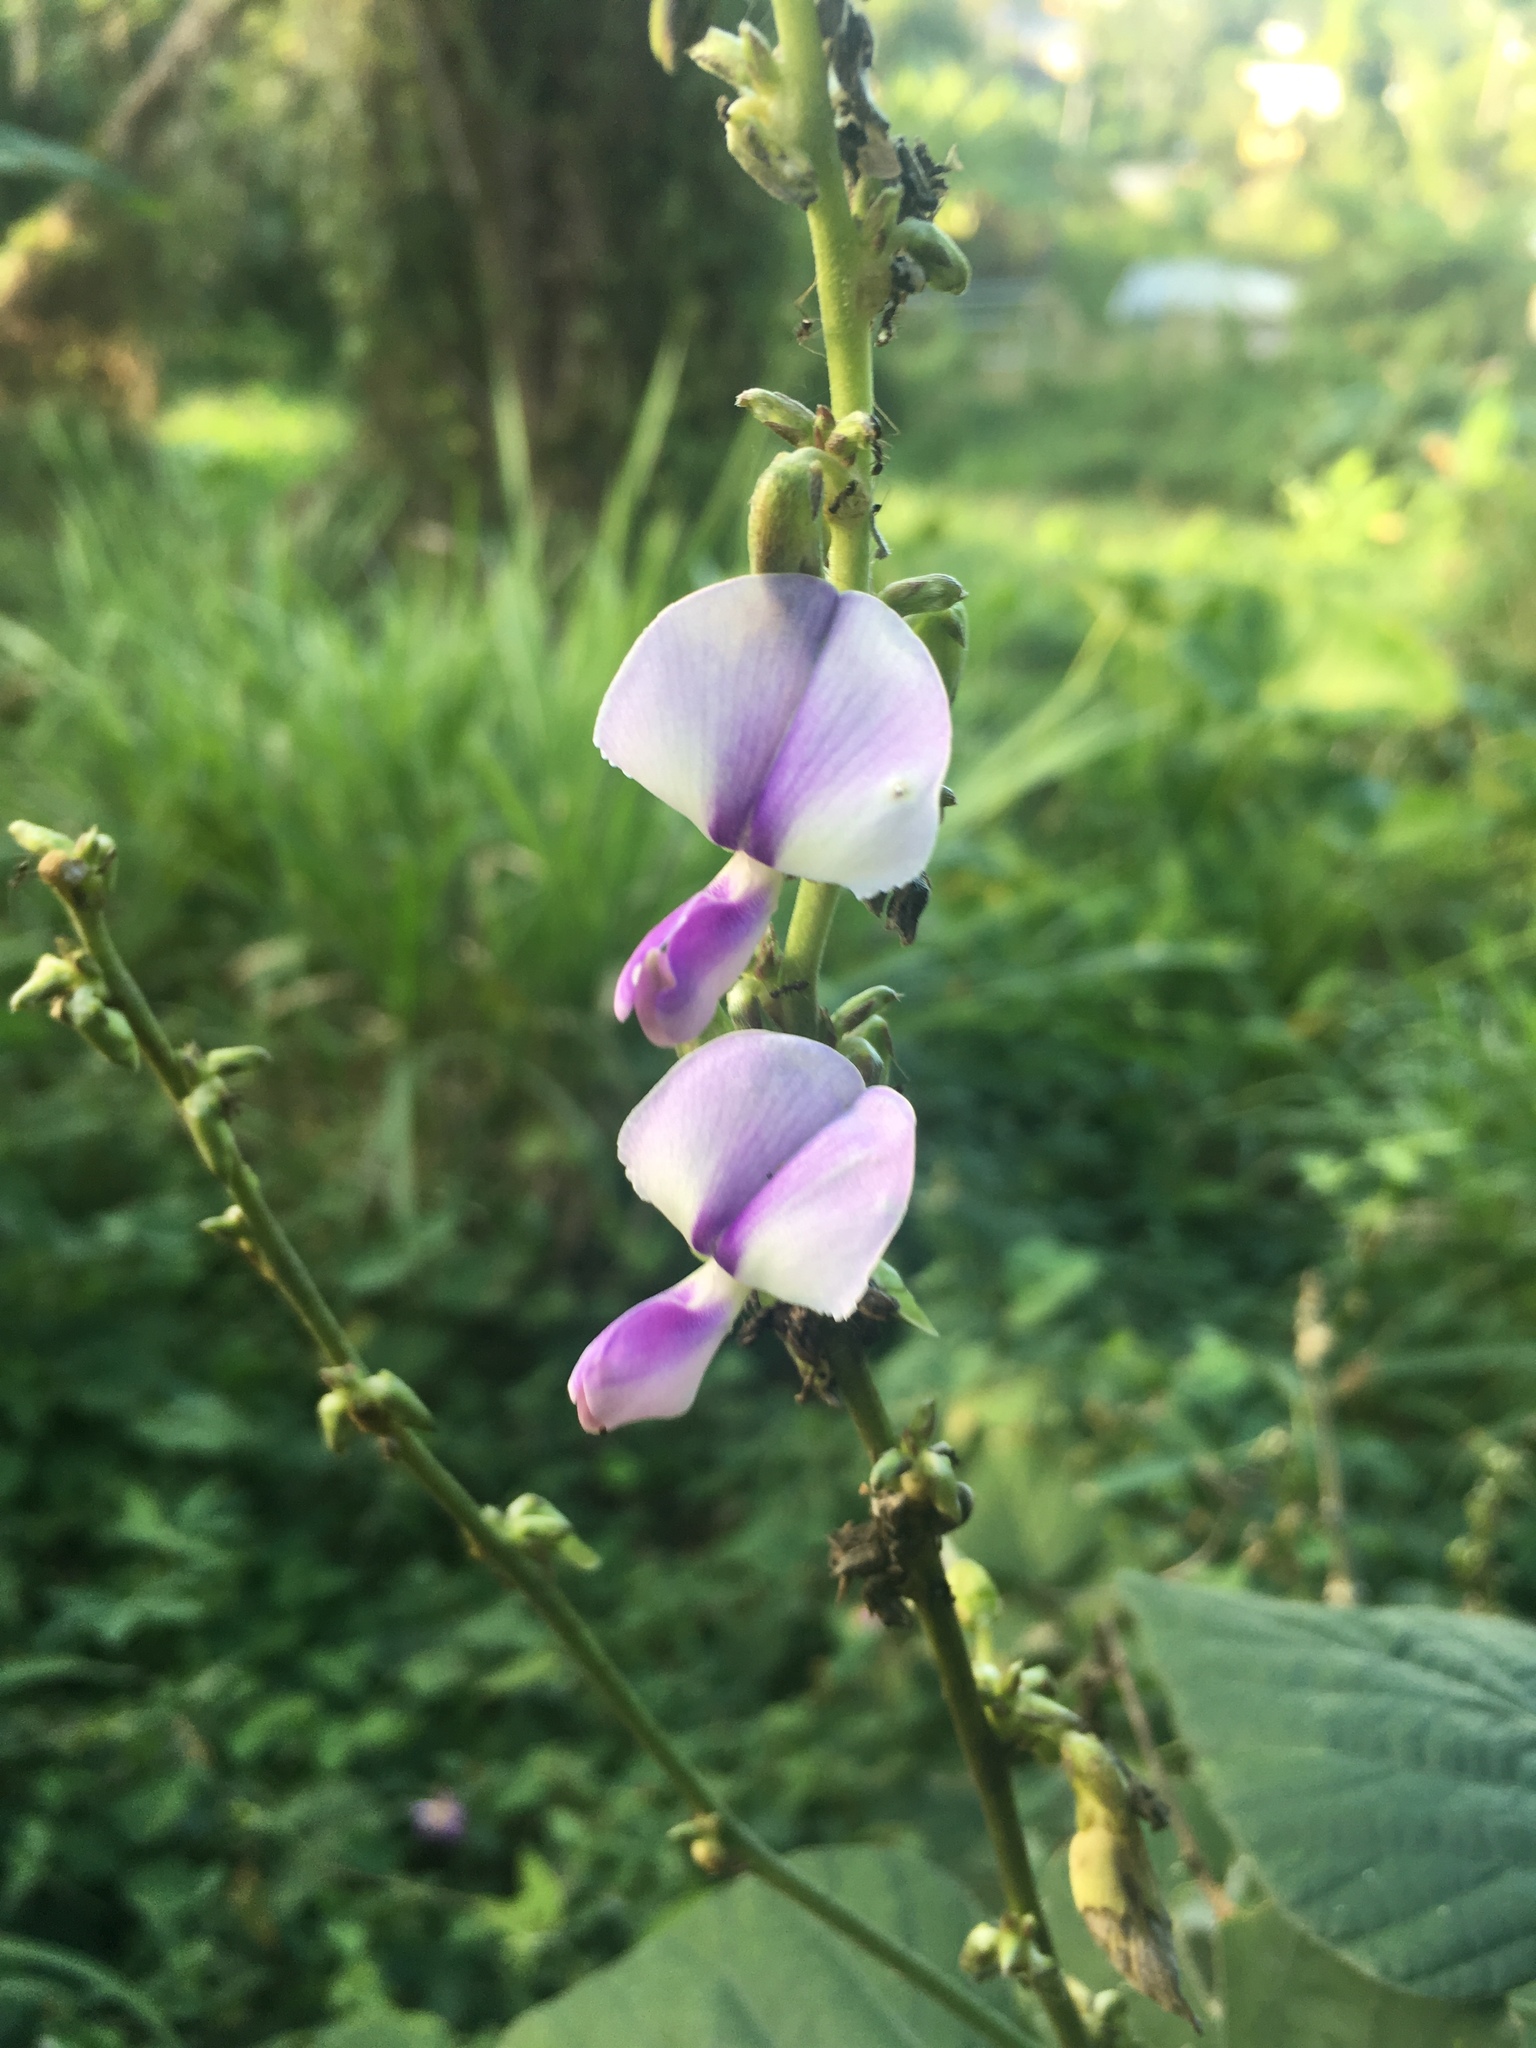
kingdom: Plantae
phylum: Tracheophyta
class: Magnoliopsida
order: Fabales
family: Fabaceae
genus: Neustanthus
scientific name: Neustanthus phaseoloides
